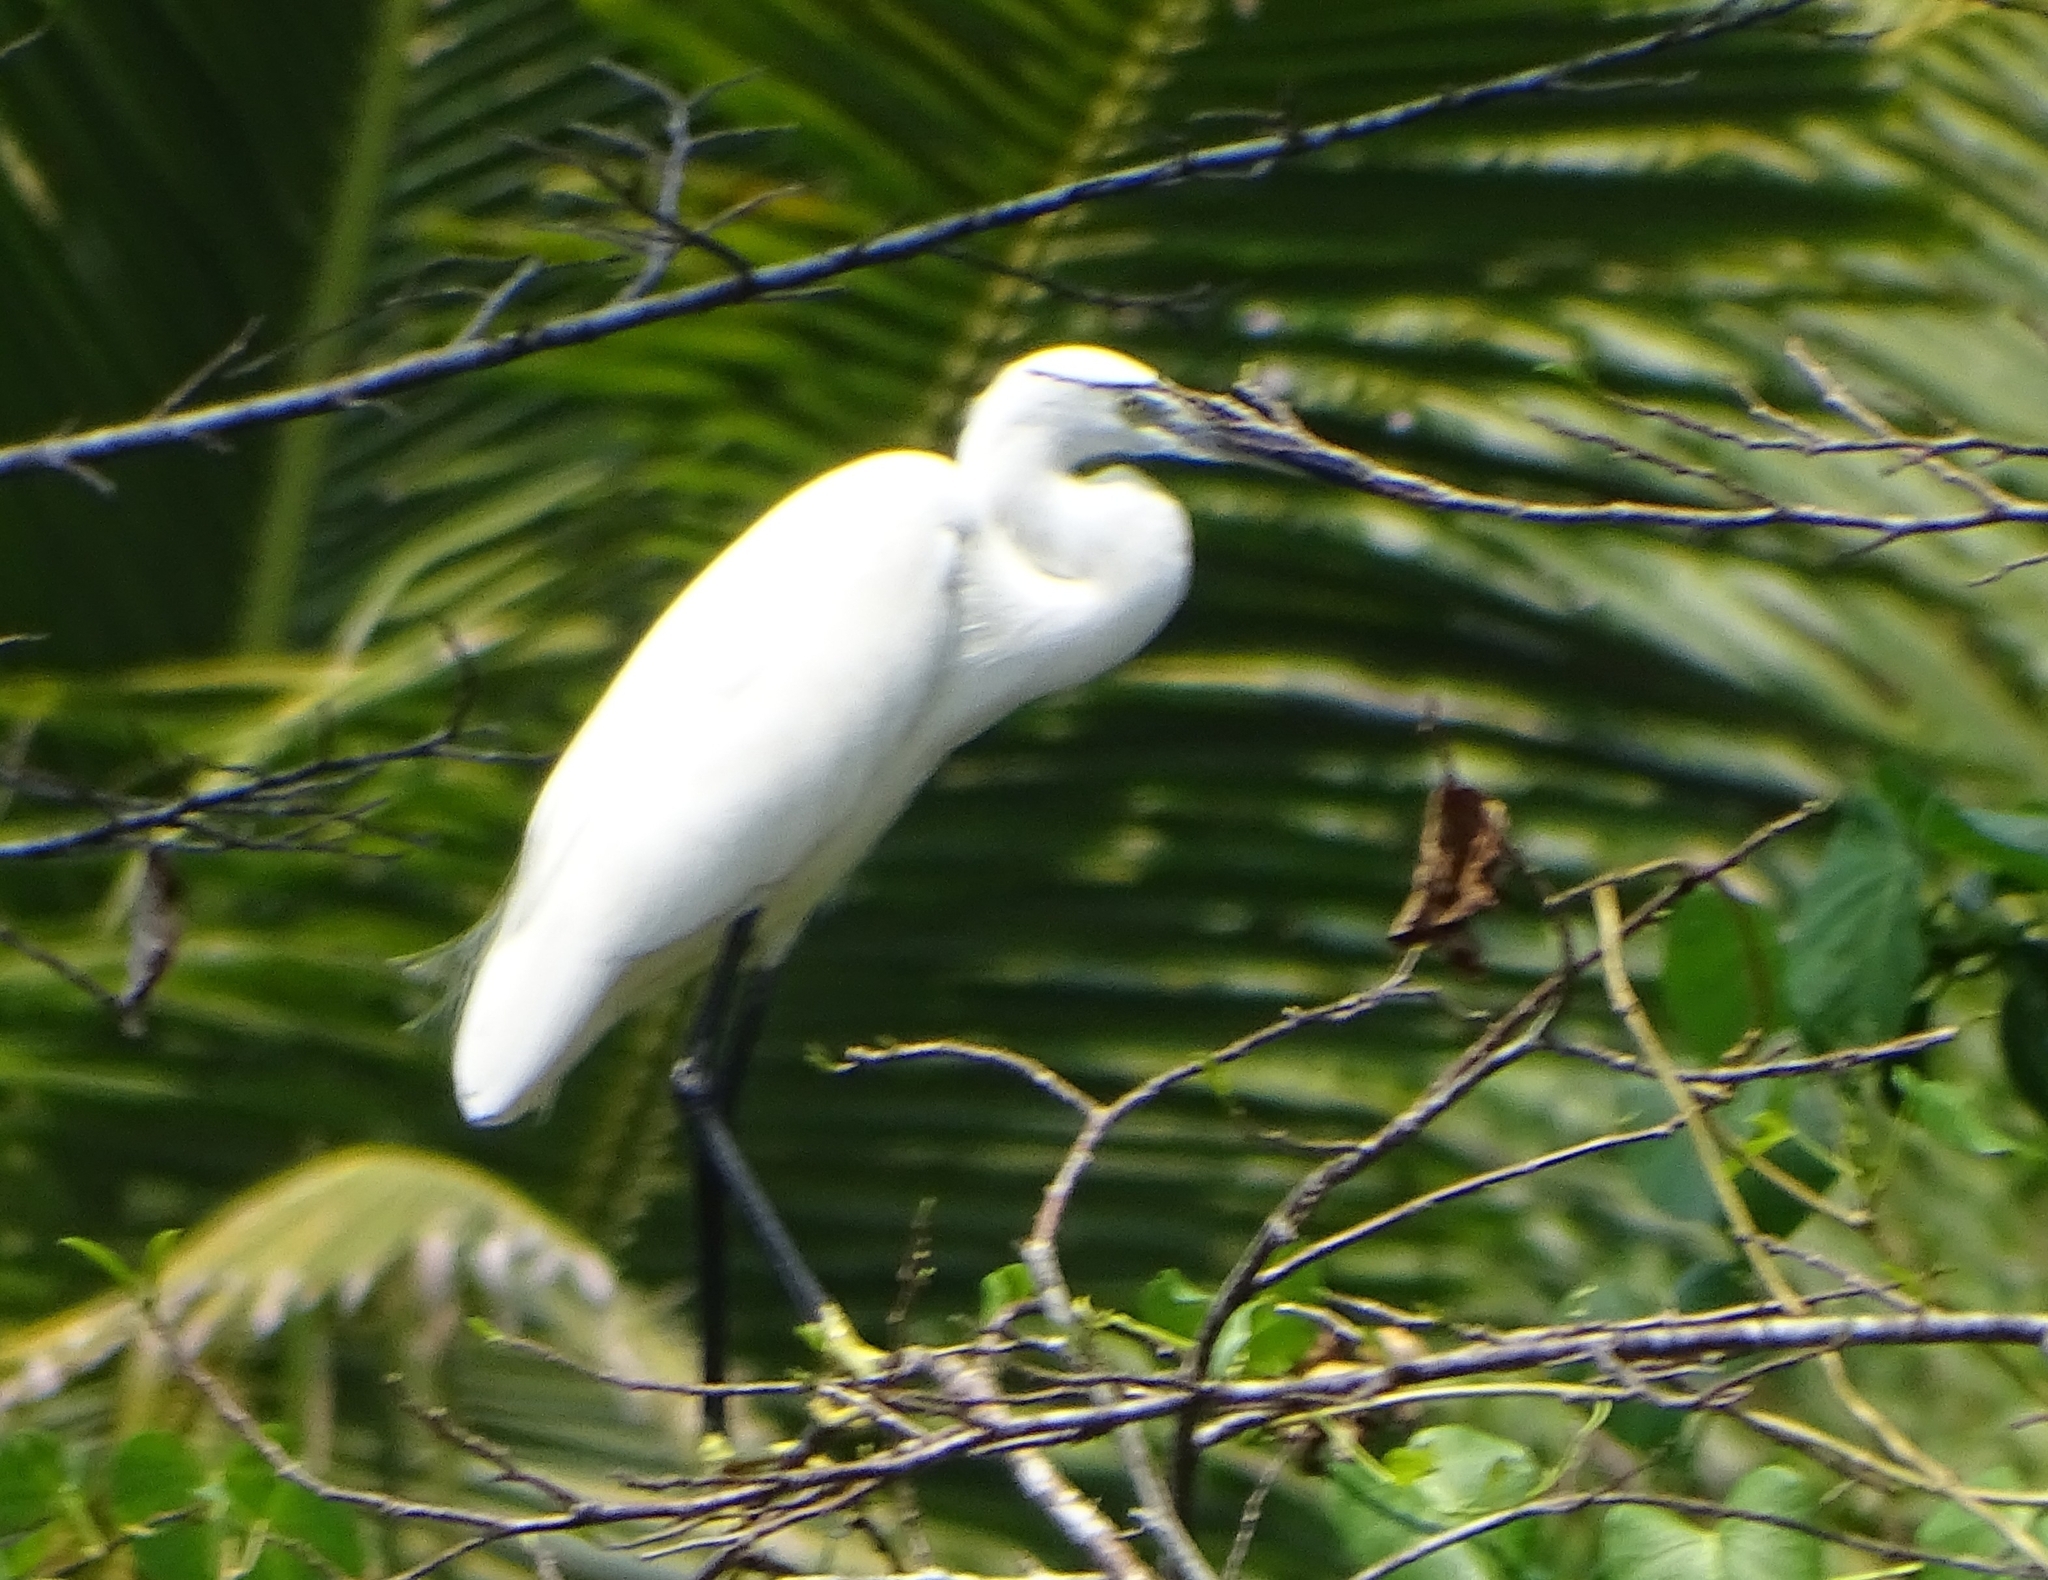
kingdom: Animalia
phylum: Chordata
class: Aves
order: Pelecaniformes
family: Ardeidae
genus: Egretta
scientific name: Egretta garzetta
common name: Little egret
